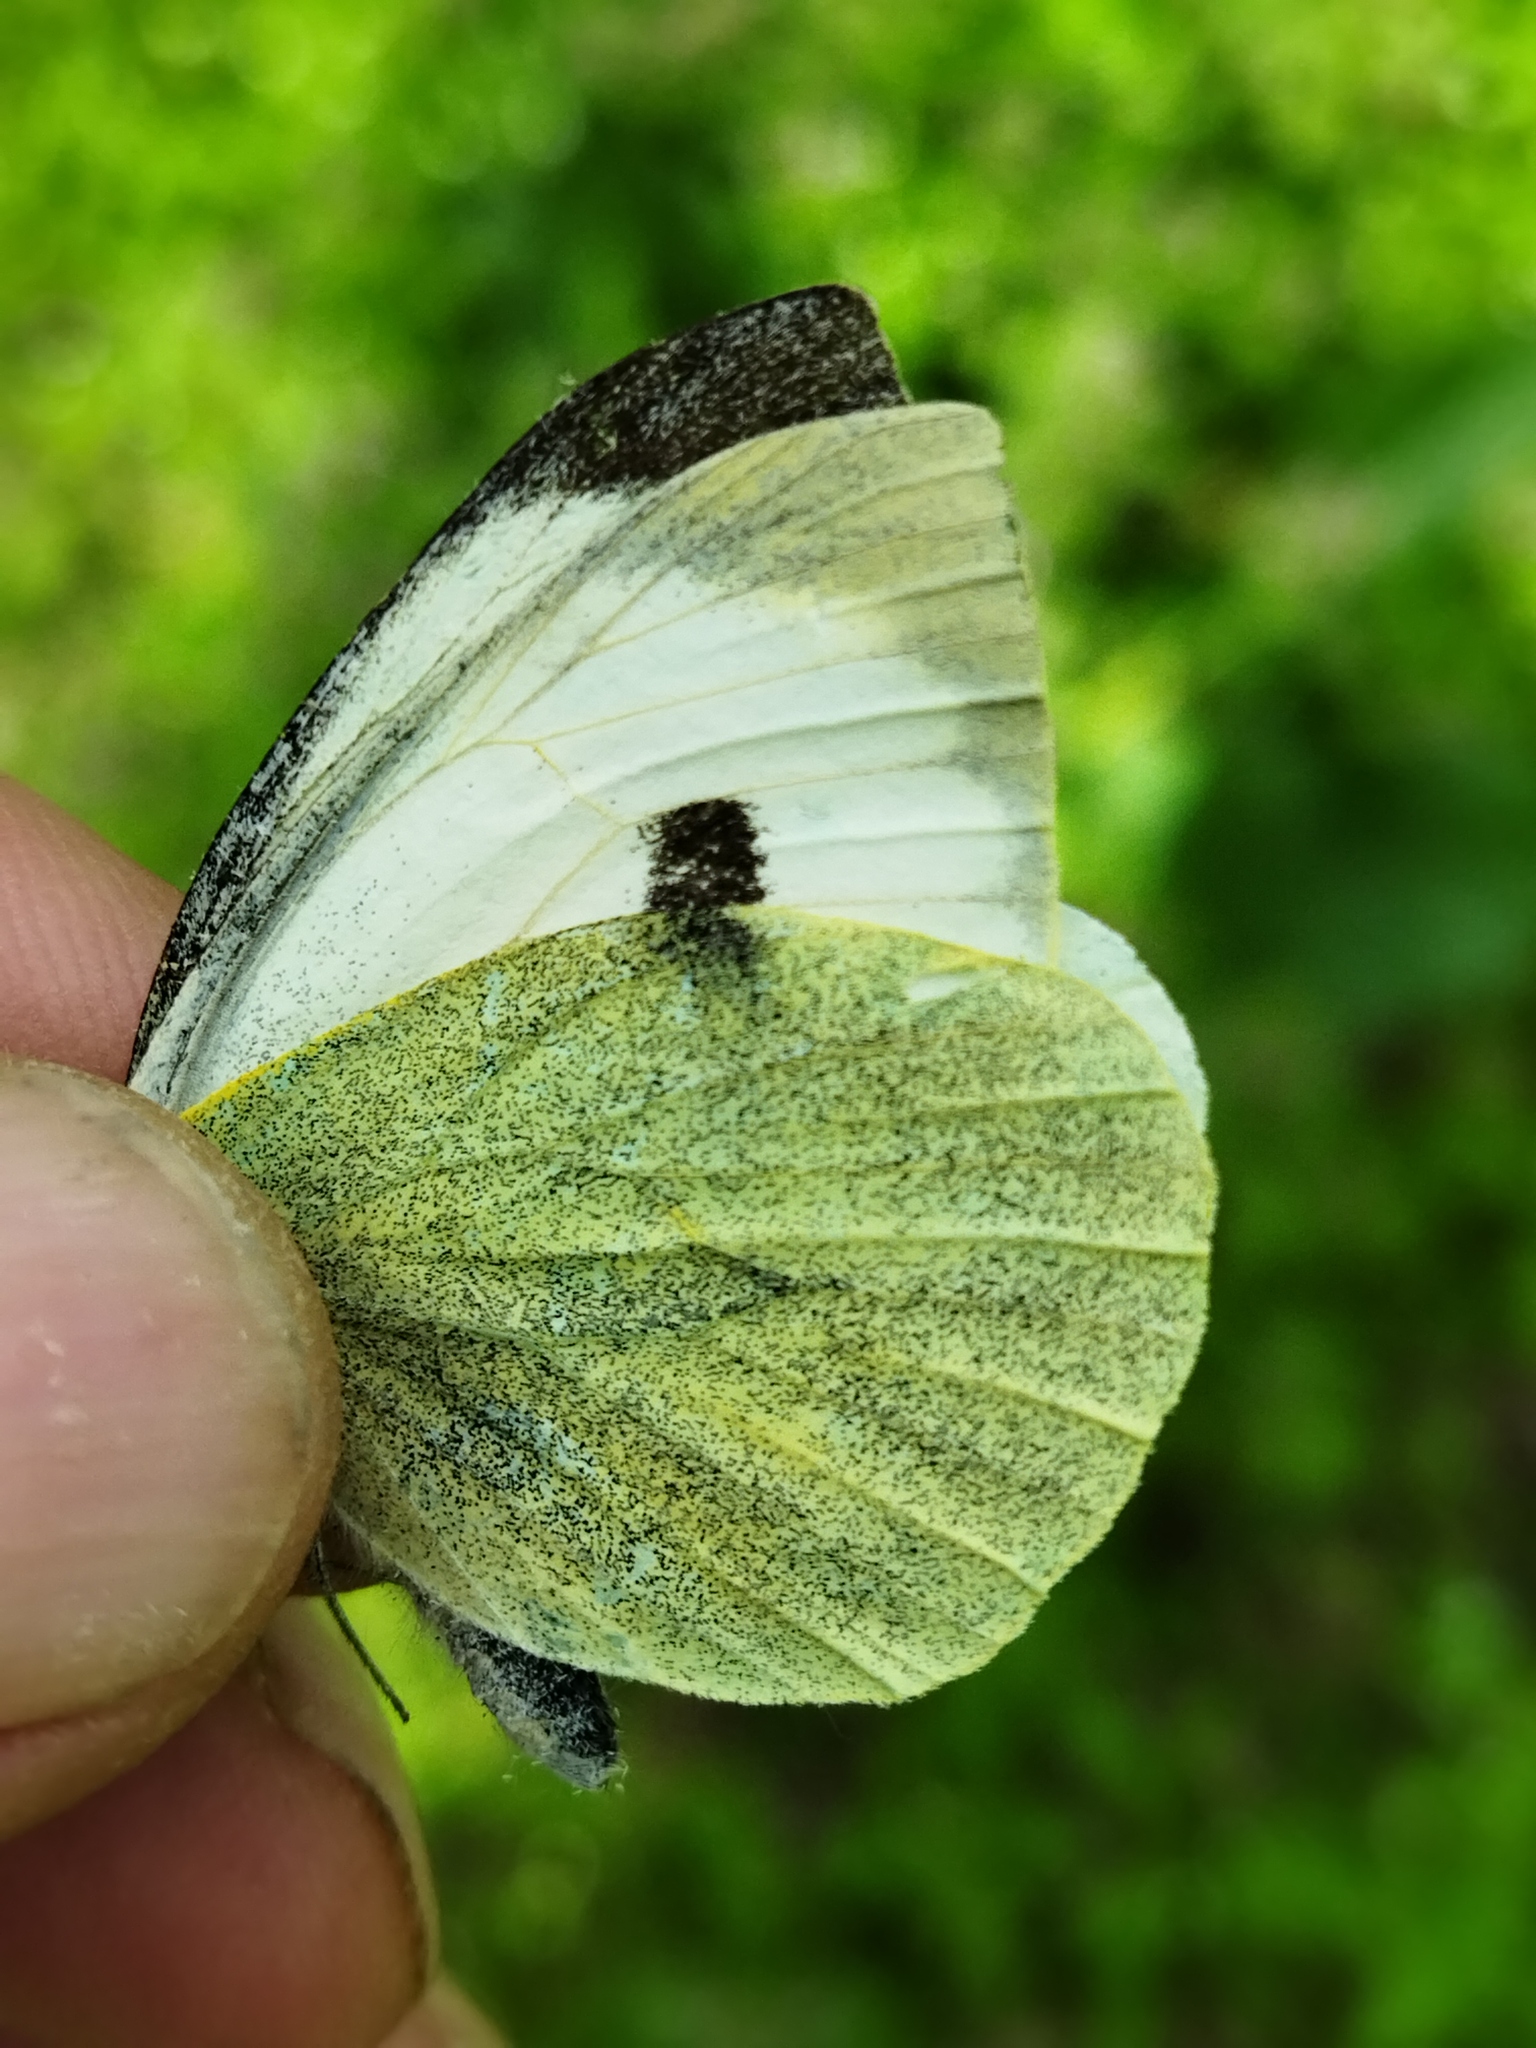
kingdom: Animalia
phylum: Arthropoda
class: Insecta
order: Lepidoptera
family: Pieridae
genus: Pieris
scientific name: Pieris brassicae
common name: Large white
